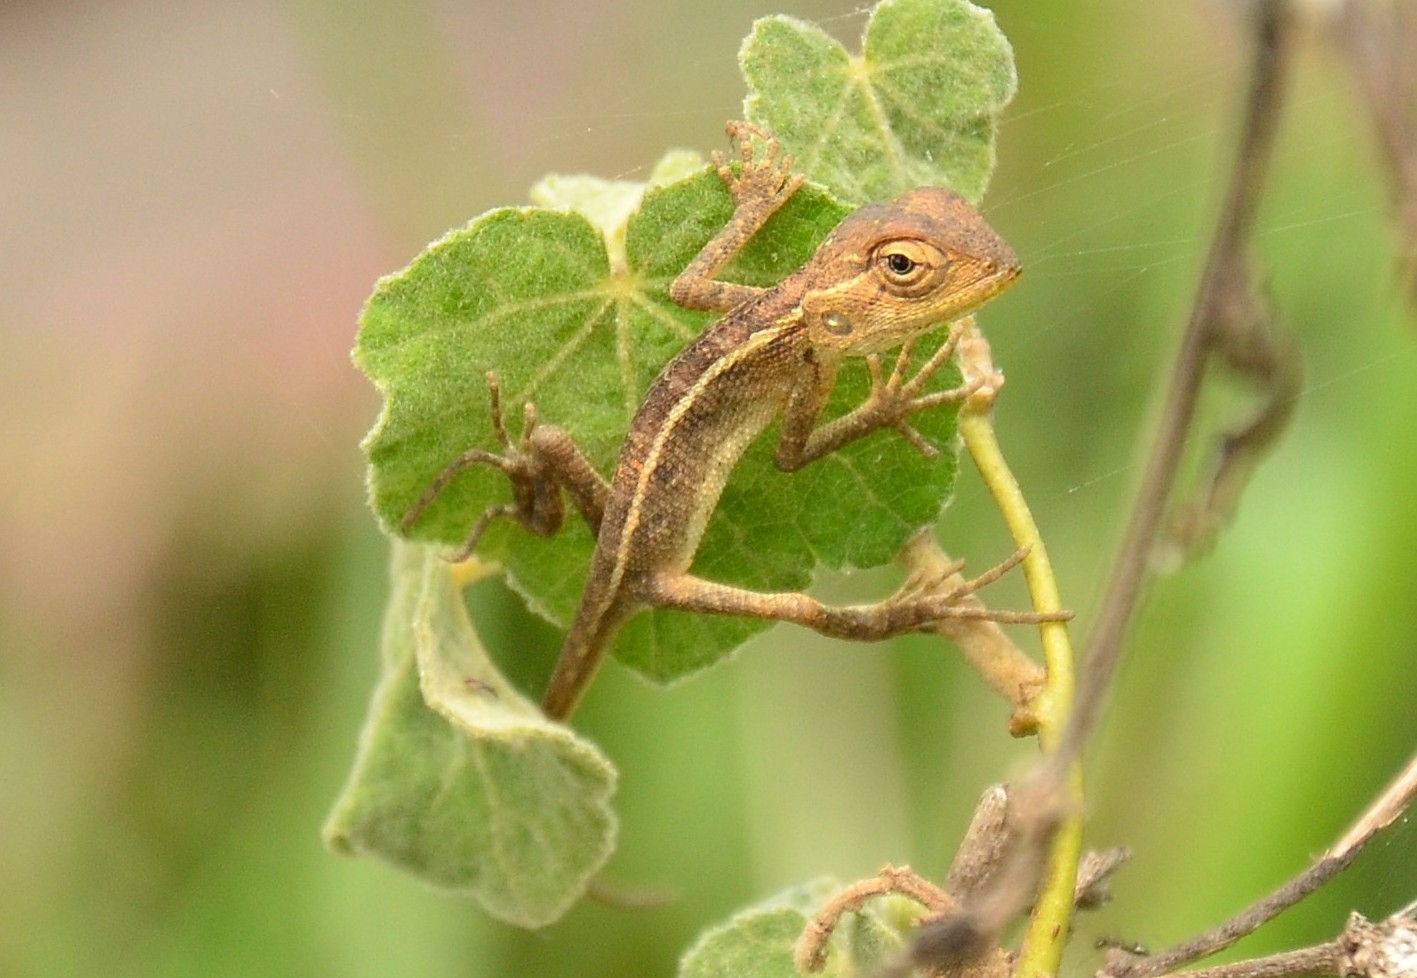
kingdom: Animalia
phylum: Chordata
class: Squamata
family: Agamidae
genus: Calotes
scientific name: Calotes versicolor
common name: Oriental garden lizard
